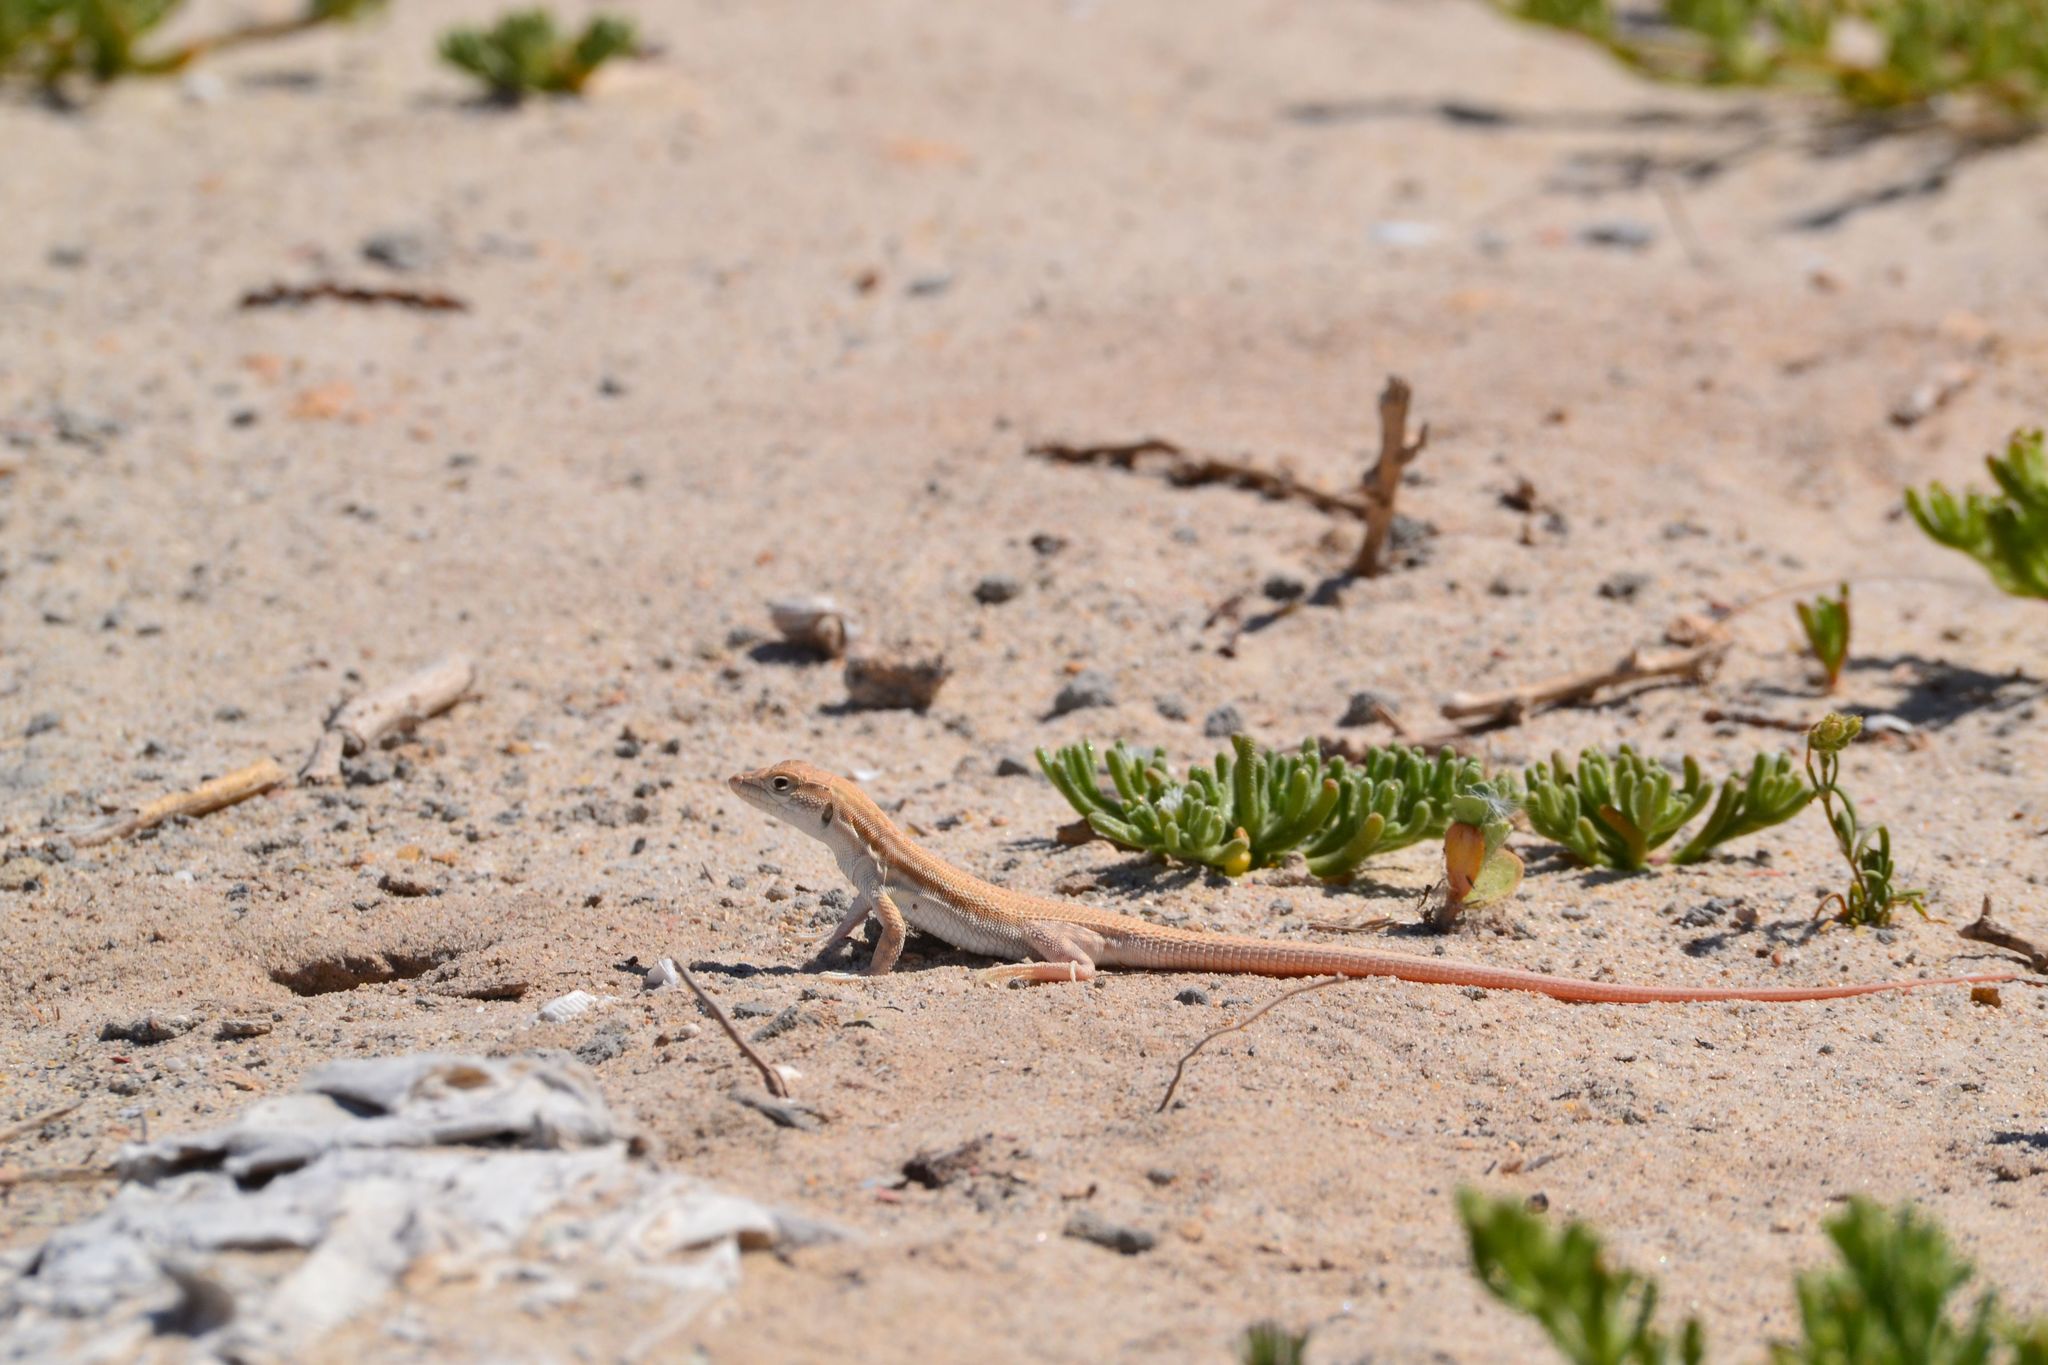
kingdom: Animalia
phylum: Chordata
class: Squamata
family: Lacertidae
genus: Acanthodactylus
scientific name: Acanthodactylus boskianus
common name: Bosc’s fringe-toed lizard
